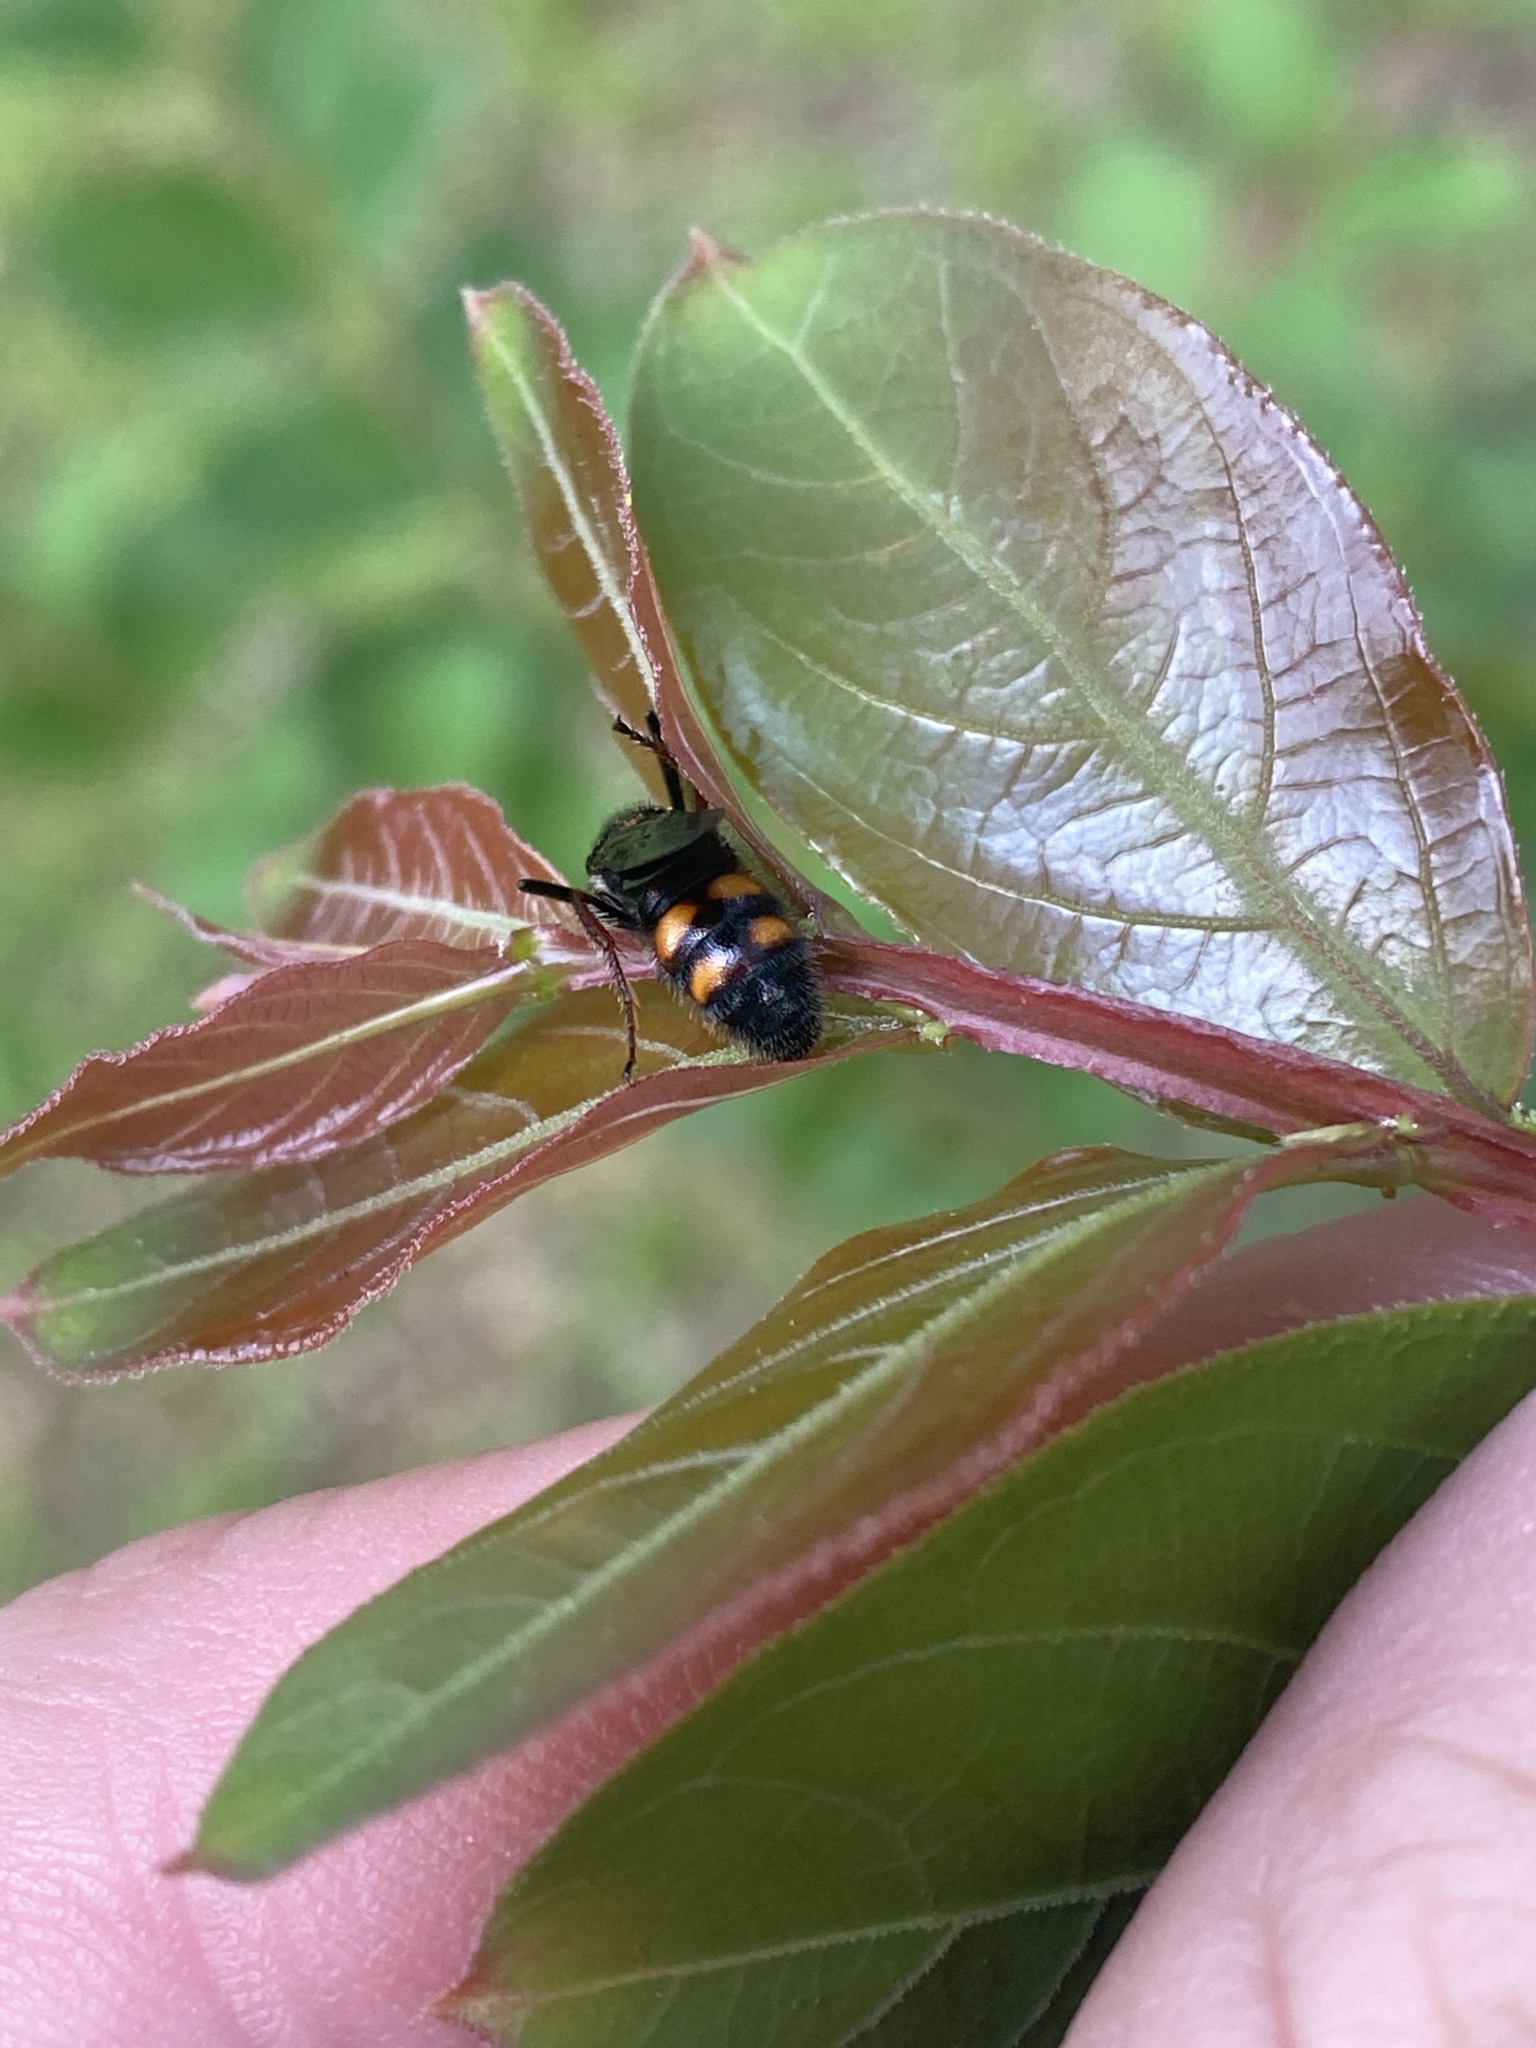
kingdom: Animalia
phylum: Arthropoda
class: Insecta
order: Hymenoptera
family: Scoliidae
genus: Scolia
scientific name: Scolia nobilitata
